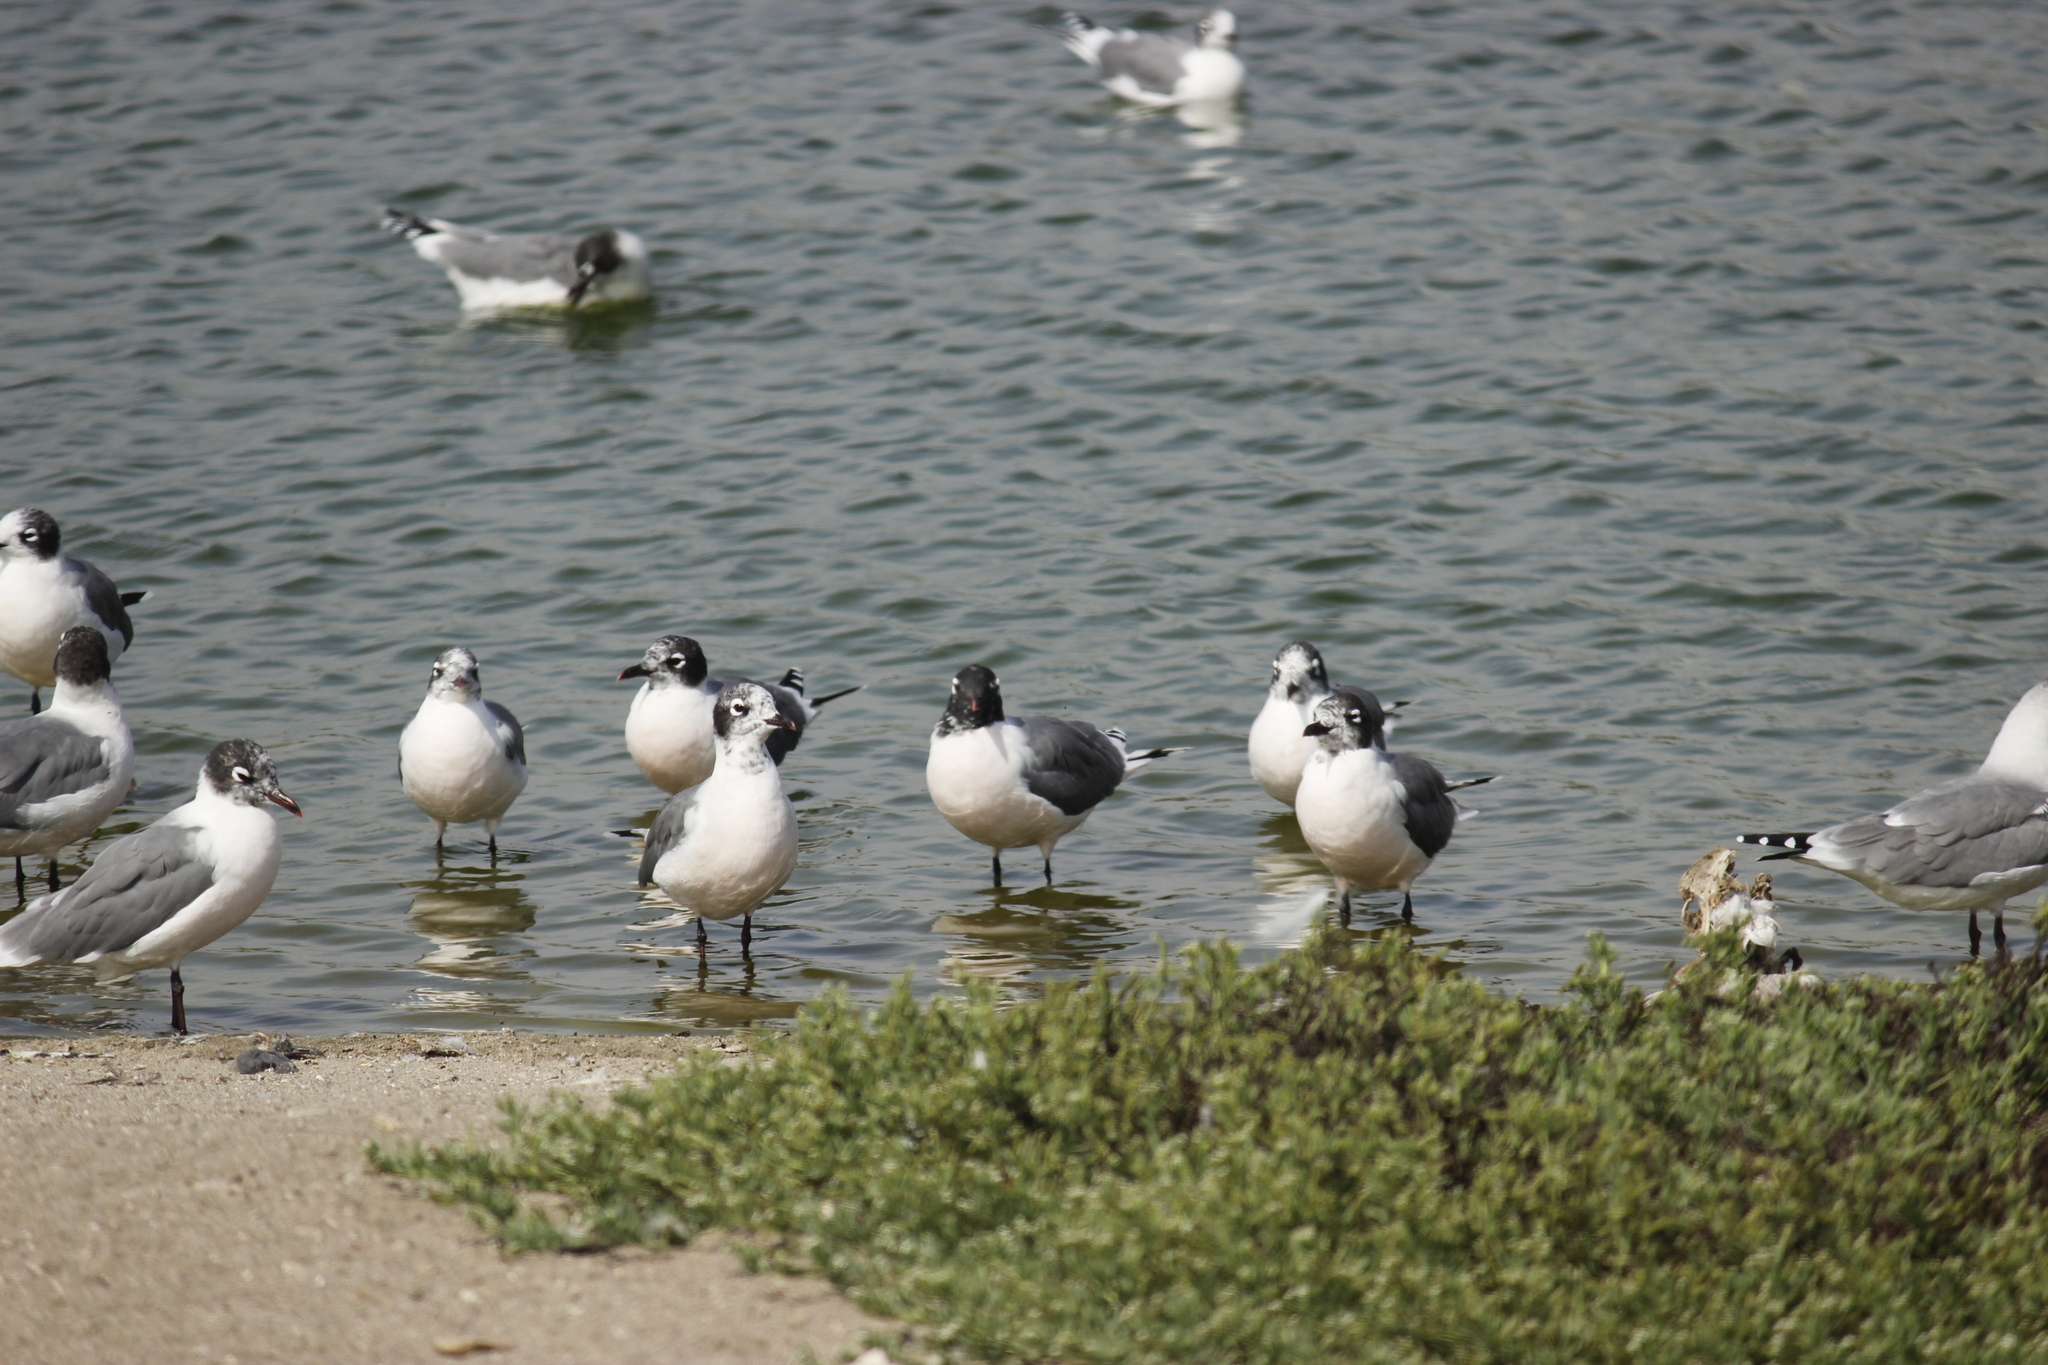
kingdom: Animalia
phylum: Chordata
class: Aves
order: Charadriiformes
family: Laridae
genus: Leucophaeus
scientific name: Leucophaeus pipixcan
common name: Franklin's gull
